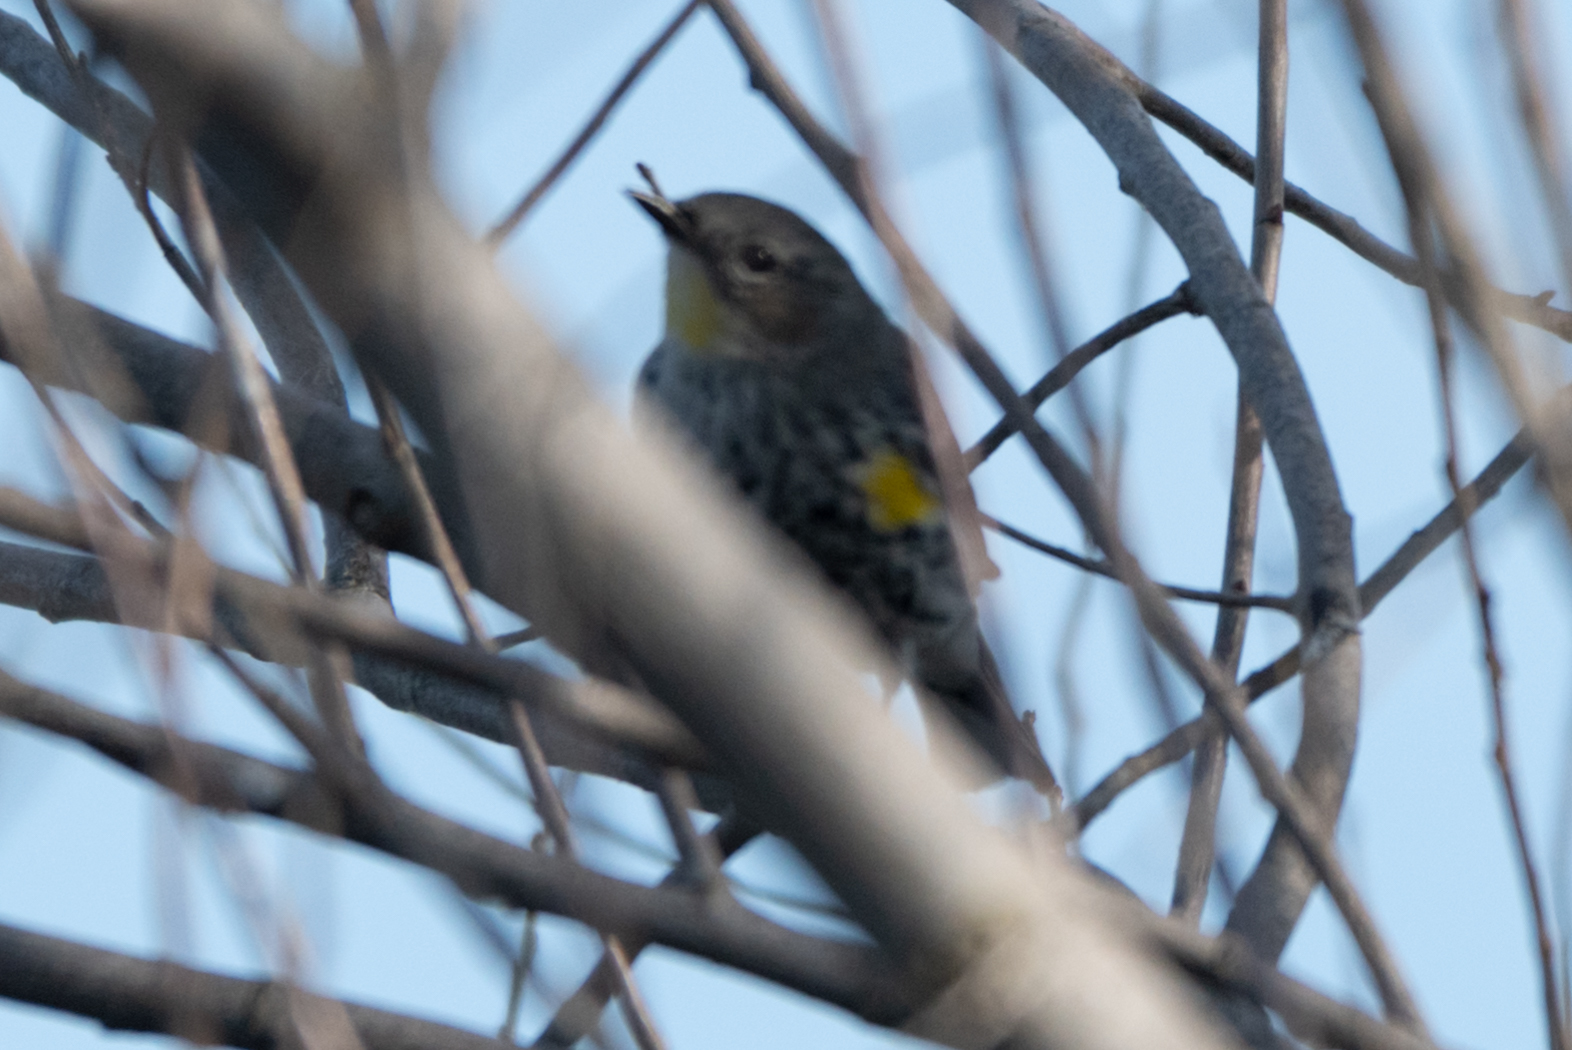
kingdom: Animalia
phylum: Chordata
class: Aves
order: Passeriformes
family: Parulidae
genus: Setophaga
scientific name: Setophaga coronata
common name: Myrtle warbler
